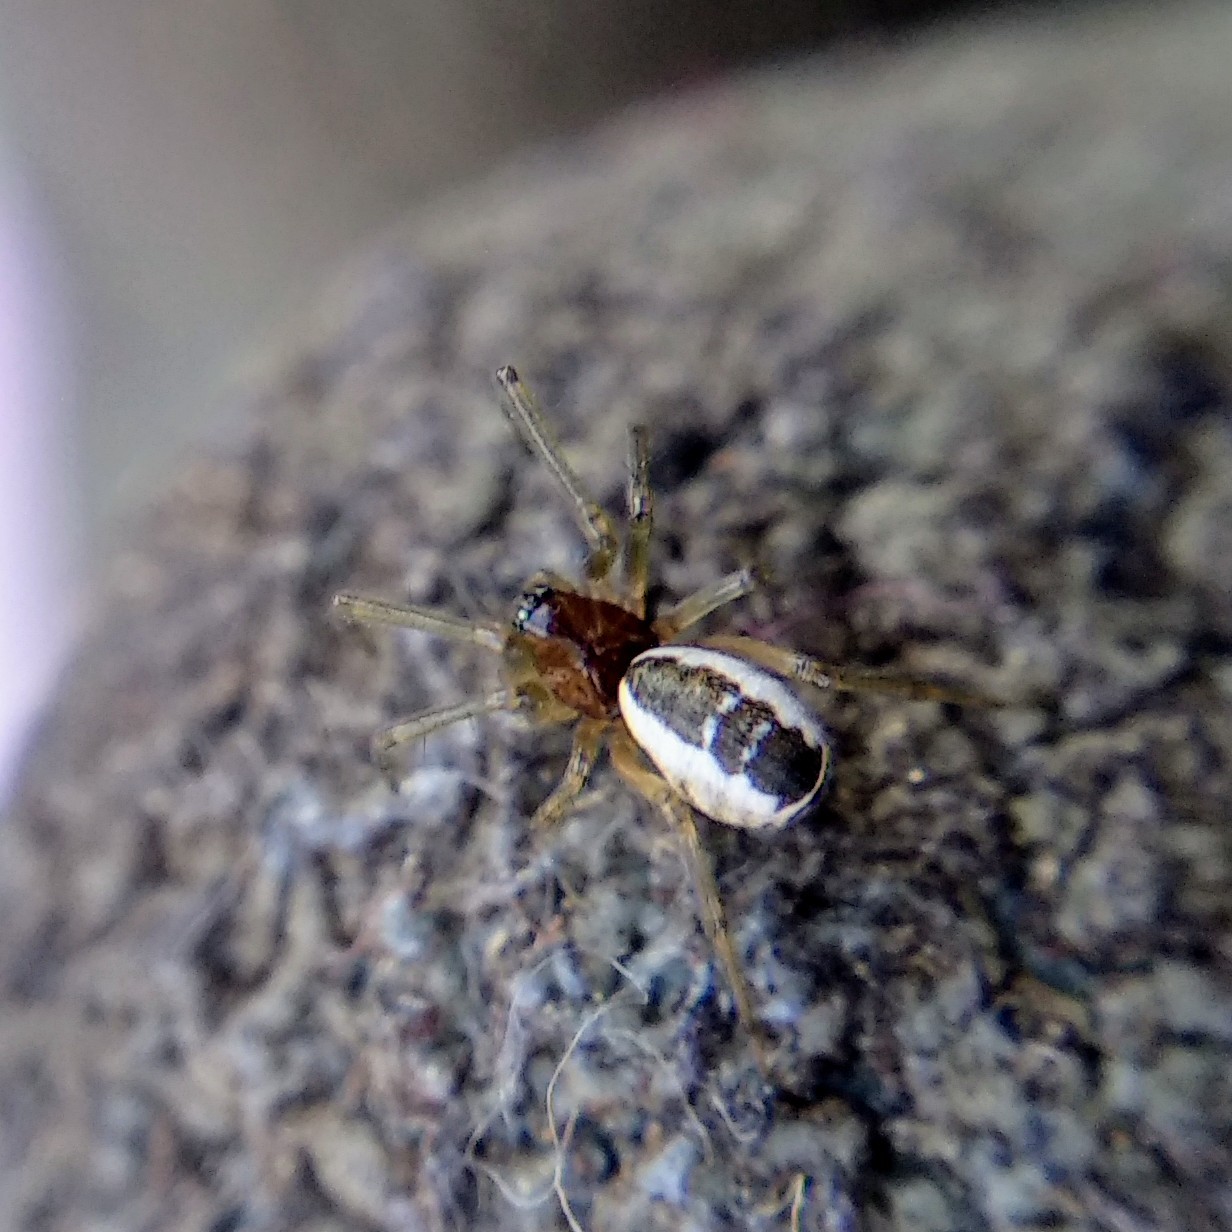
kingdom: Animalia
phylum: Arthropoda
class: Arachnida
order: Araneae
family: Linyphiidae
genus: Frontinellina
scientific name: Frontinellina frutetorum
